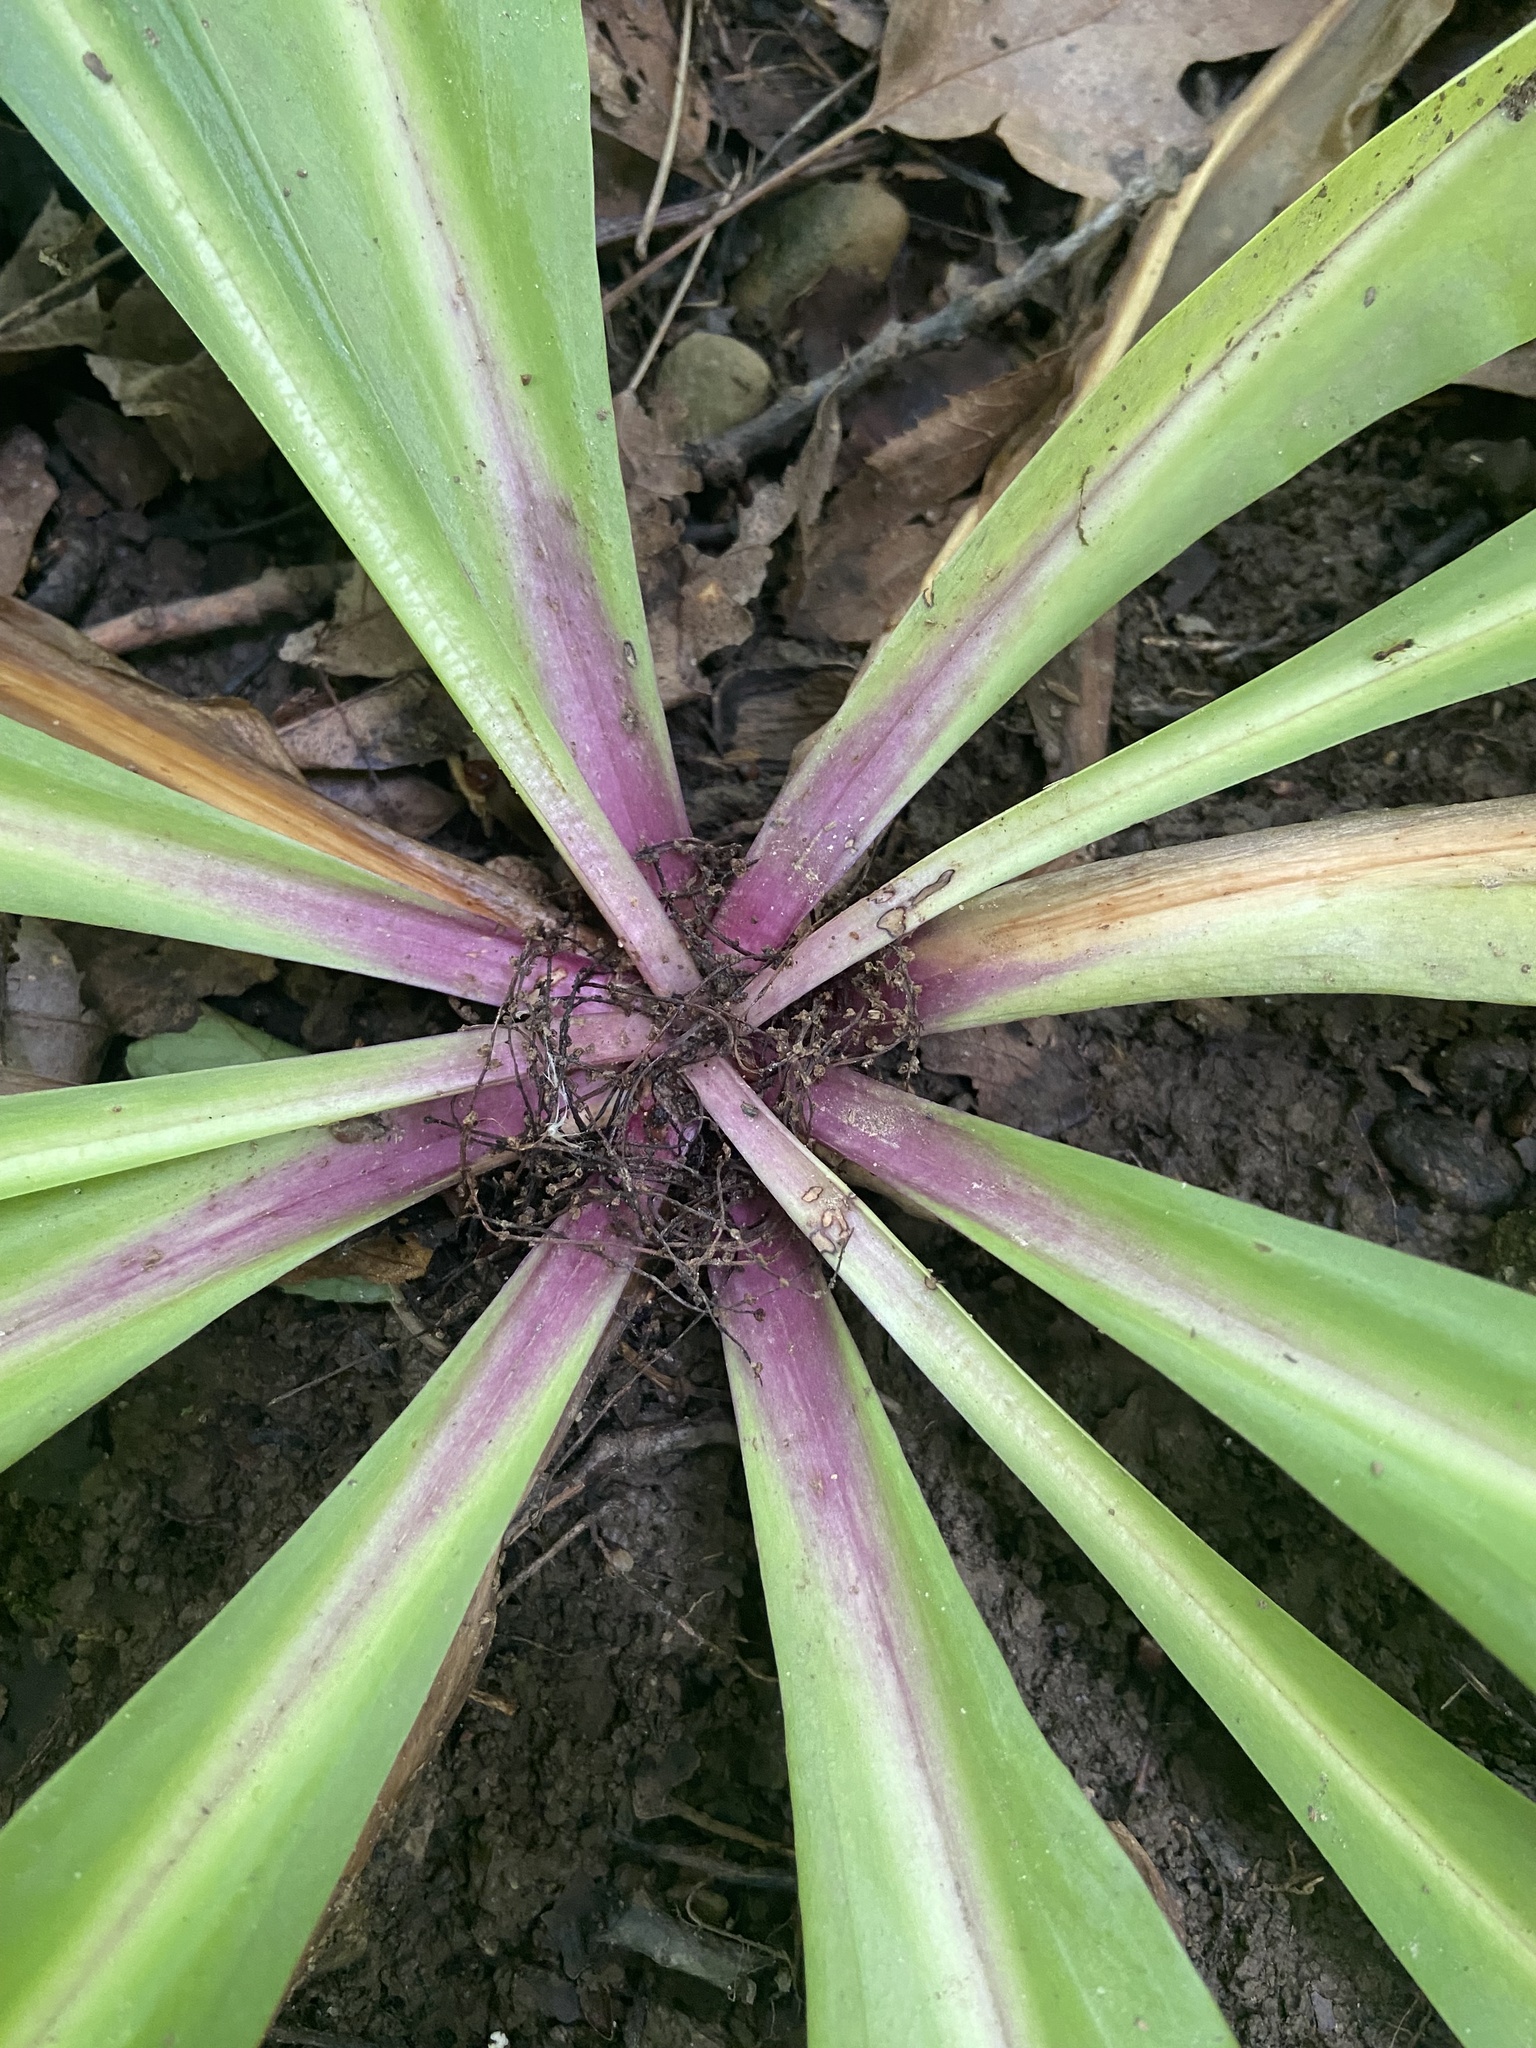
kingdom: Plantae
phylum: Tracheophyta
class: Magnoliopsida
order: Gentianales
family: Gentianaceae
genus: Frasera
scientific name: Frasera caroliniensis
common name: American columbo
